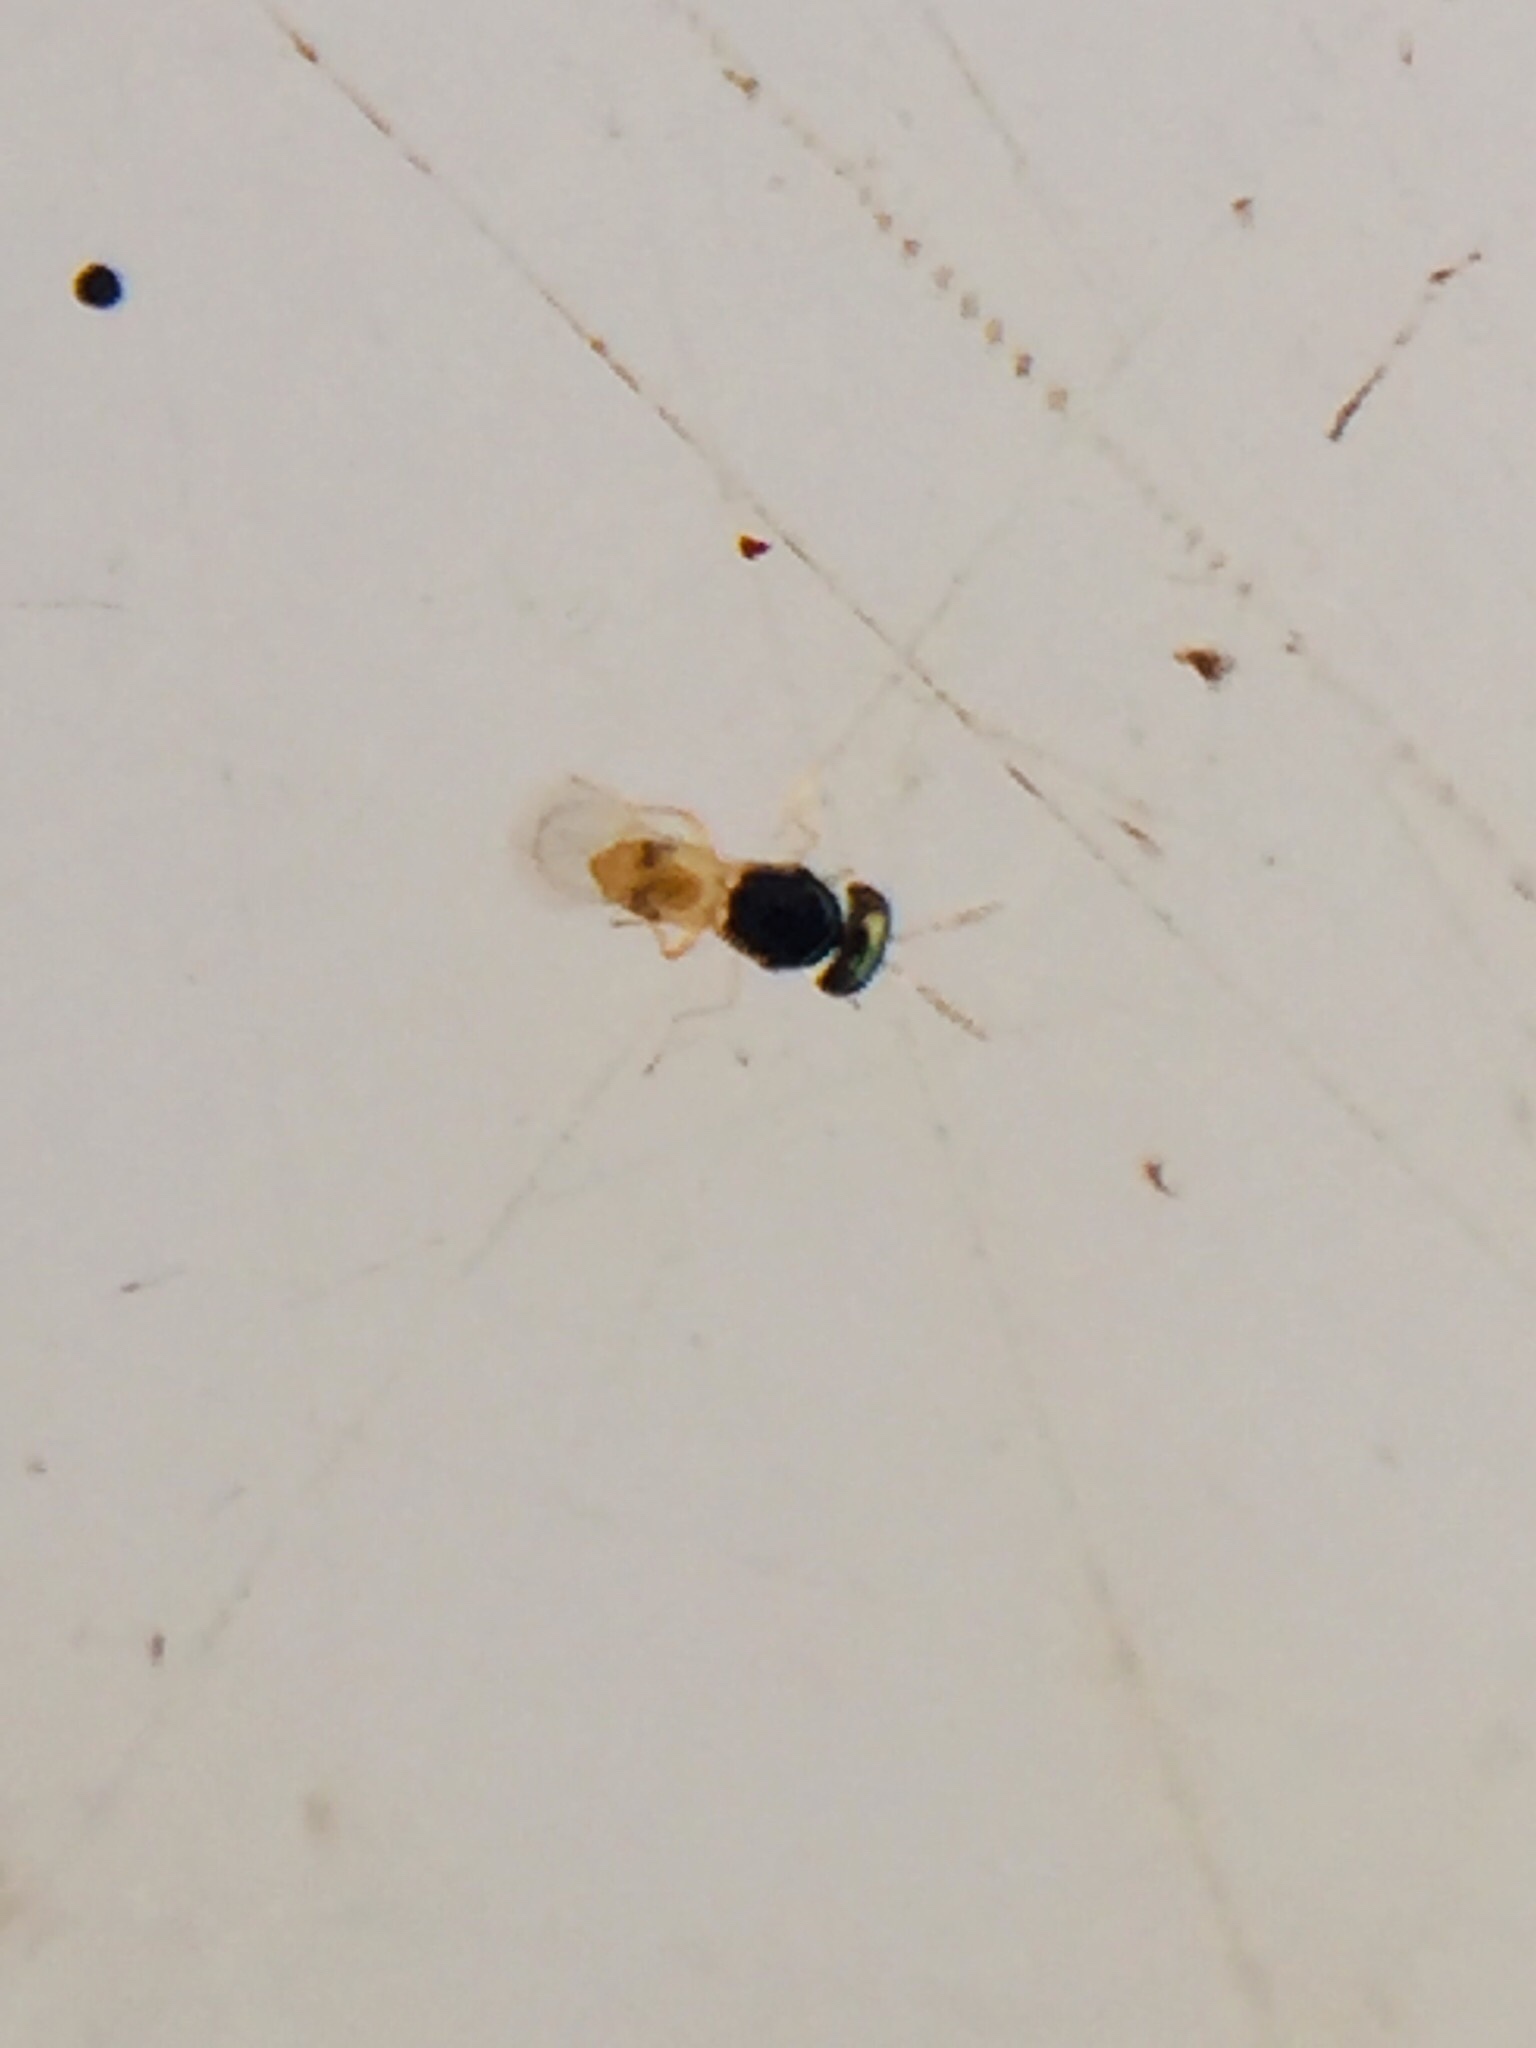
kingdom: Animalia
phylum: Arthropoda
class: Insecta
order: Hymenoptera
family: Eulophidae
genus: Thripoctenus
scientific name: Thripoctenus javae
